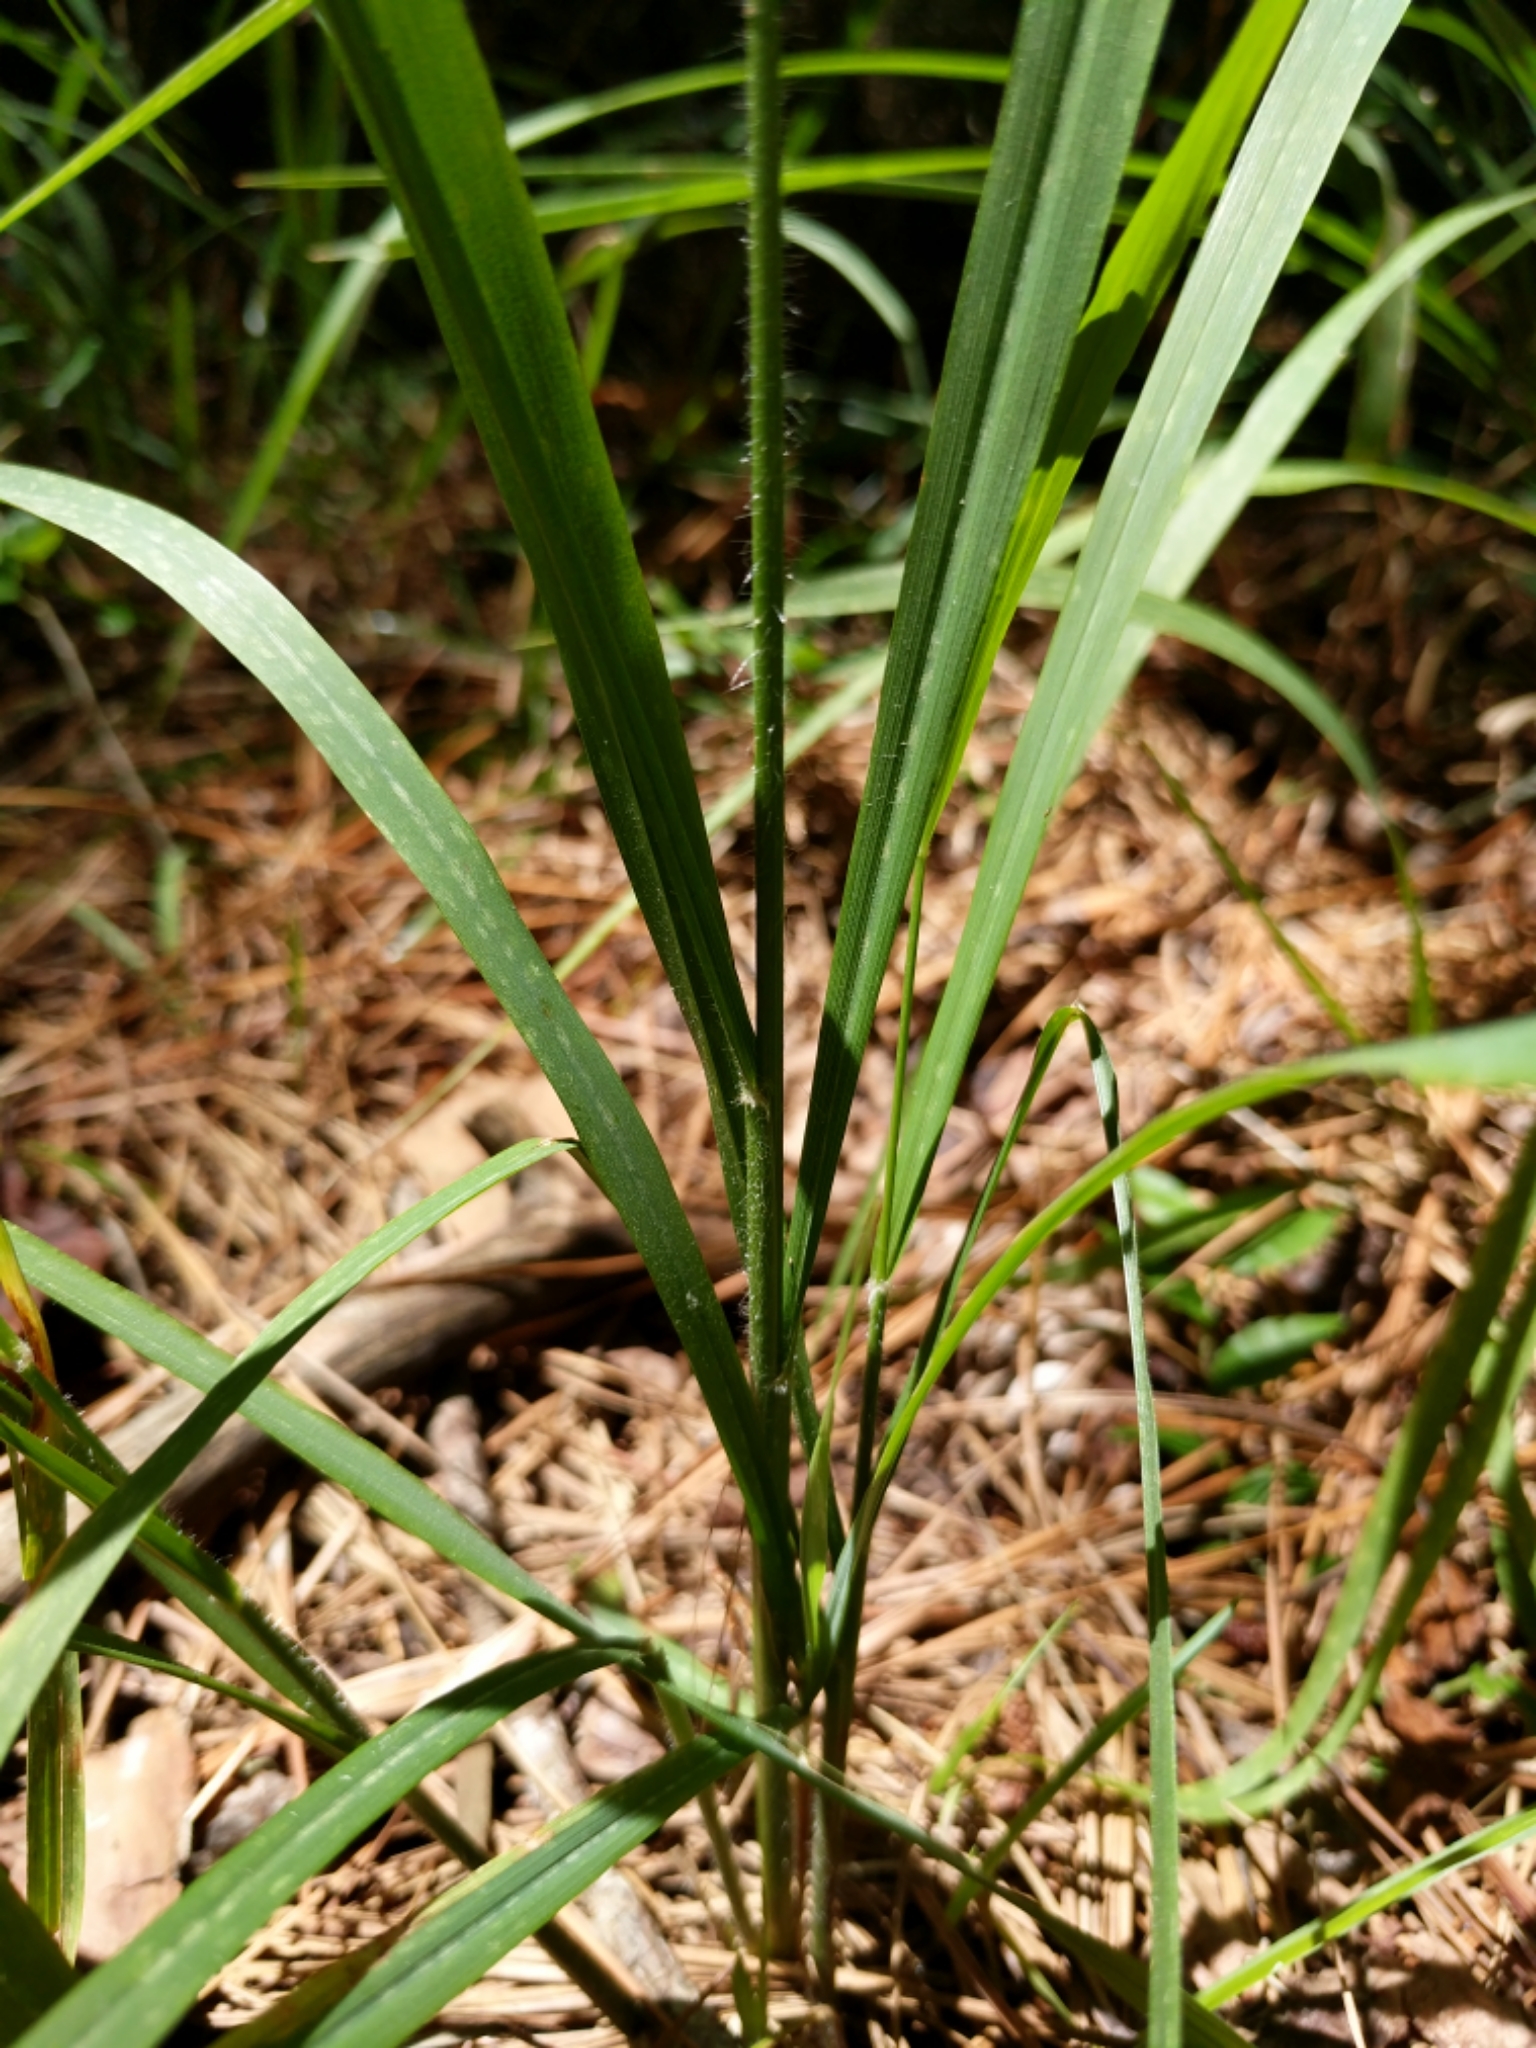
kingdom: Plantae
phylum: Tracheophyta
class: Liliopsida
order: Poales
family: Poaceae
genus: Chasmanthium
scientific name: Chasmanthium laxum
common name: Slender chasmanthium
